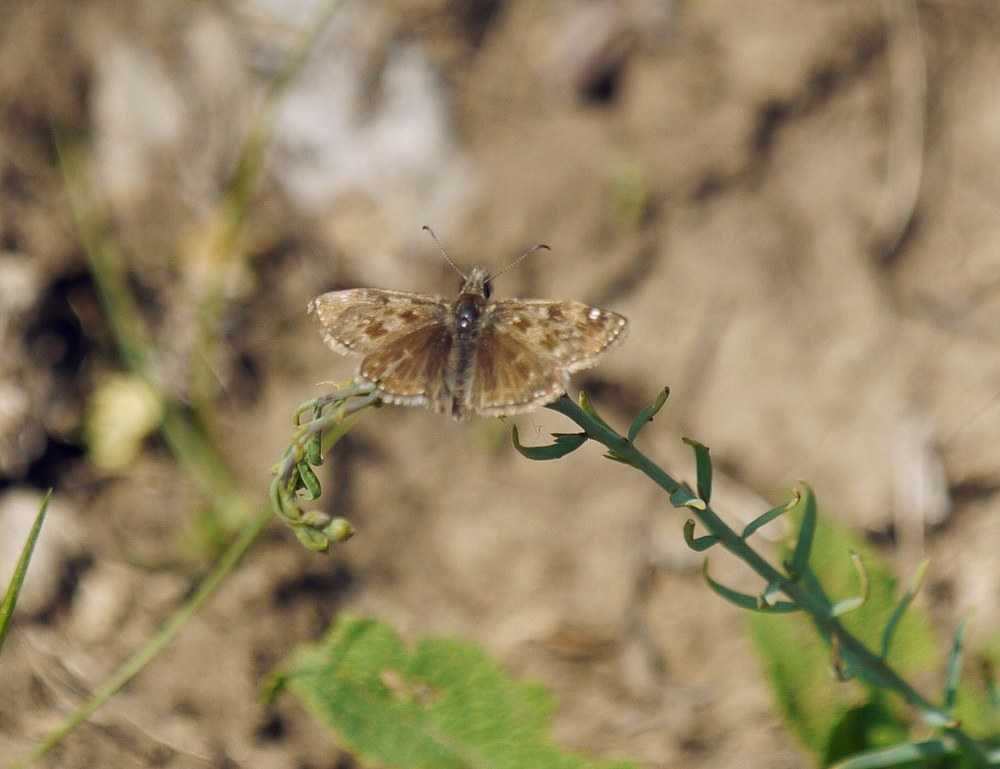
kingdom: Animalia
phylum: Arthropoda
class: Insecta
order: Lepidoptera
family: Hesperiidae
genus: Erynnis
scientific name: Erynnis tages
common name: Dingy skipper
